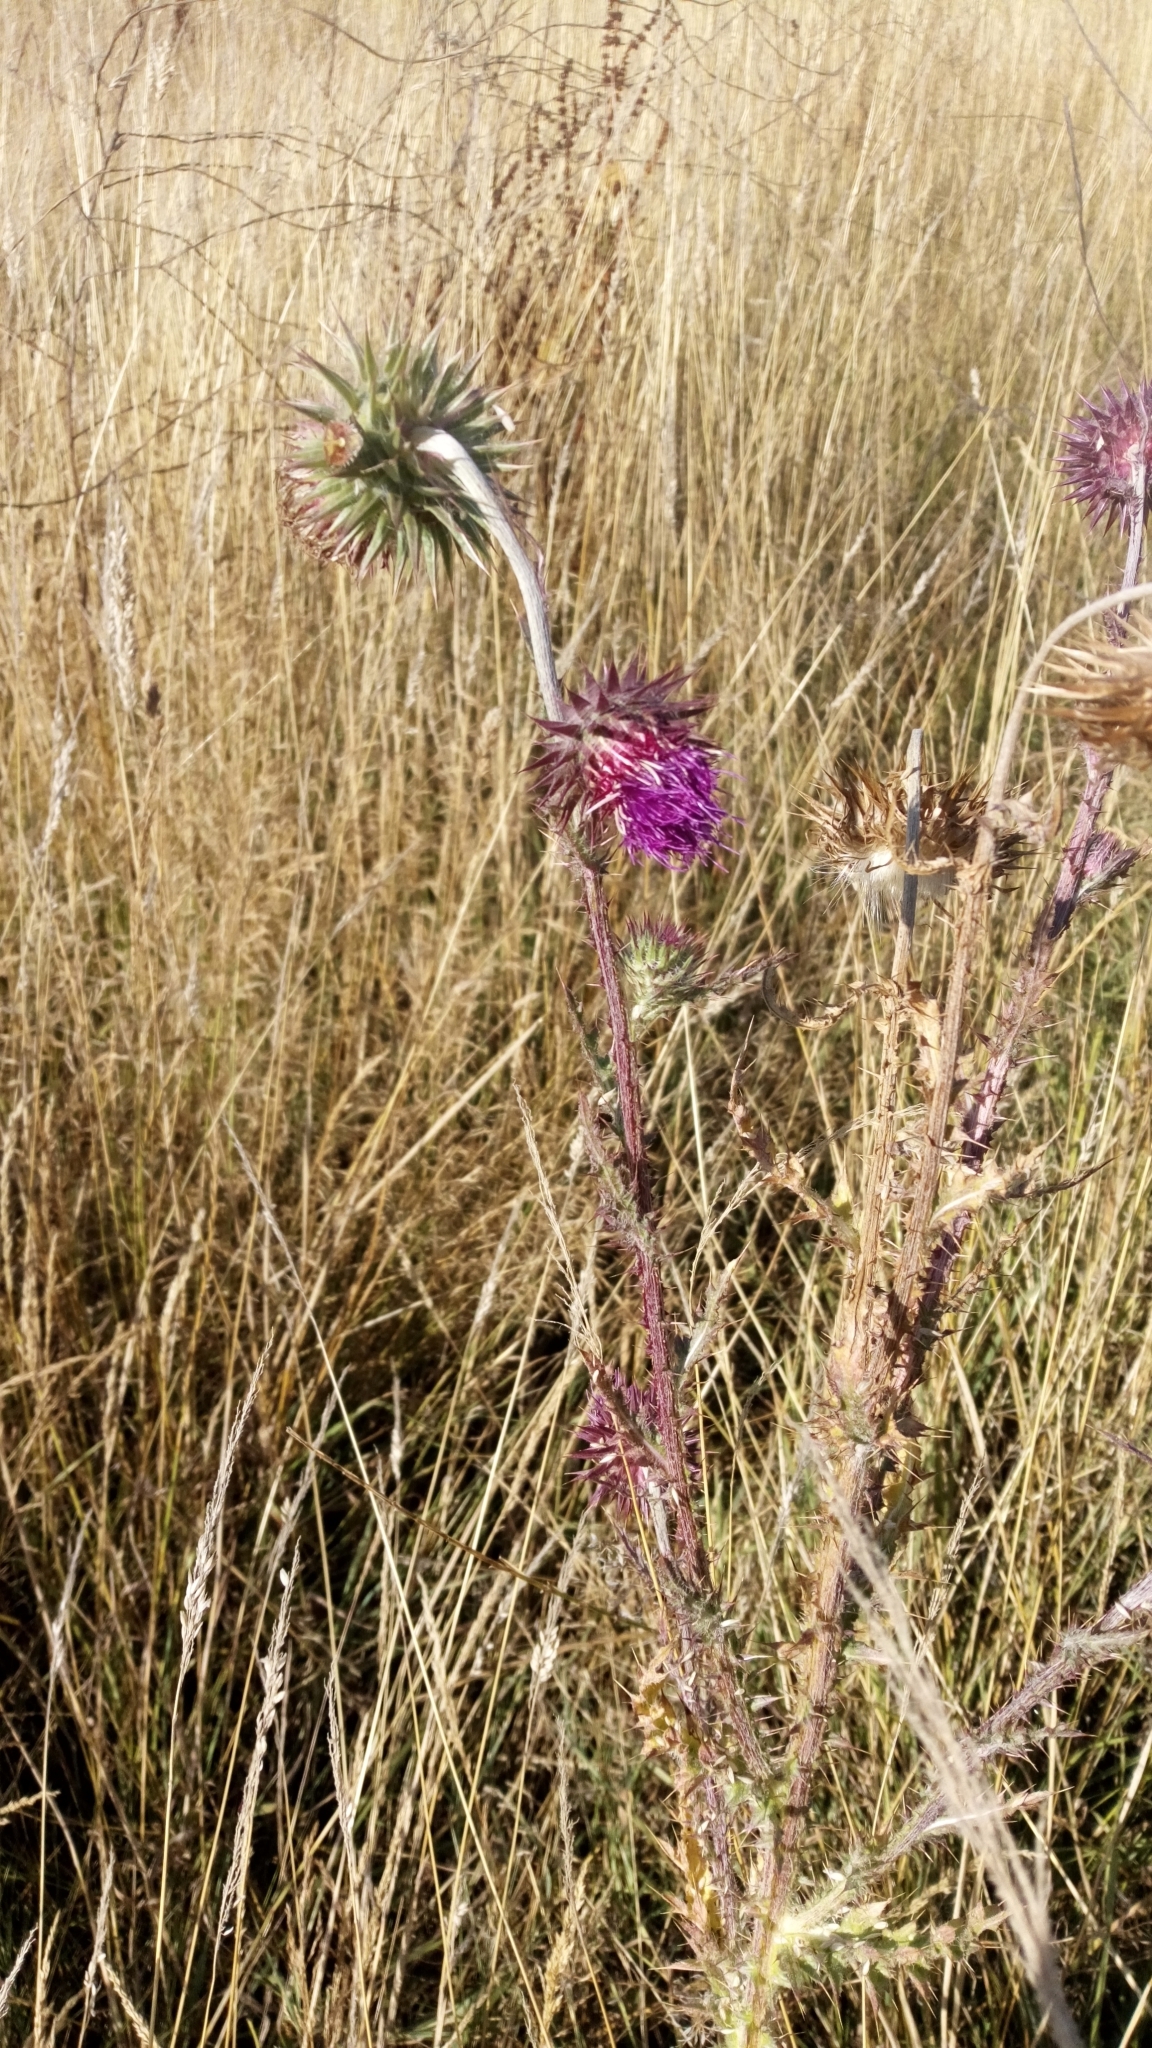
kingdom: Plantae
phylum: Tracheophyta
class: Magnoliopsida
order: Asterales
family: Asteraceae
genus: Carduus
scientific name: Carduus nutans
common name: Musk thistle
